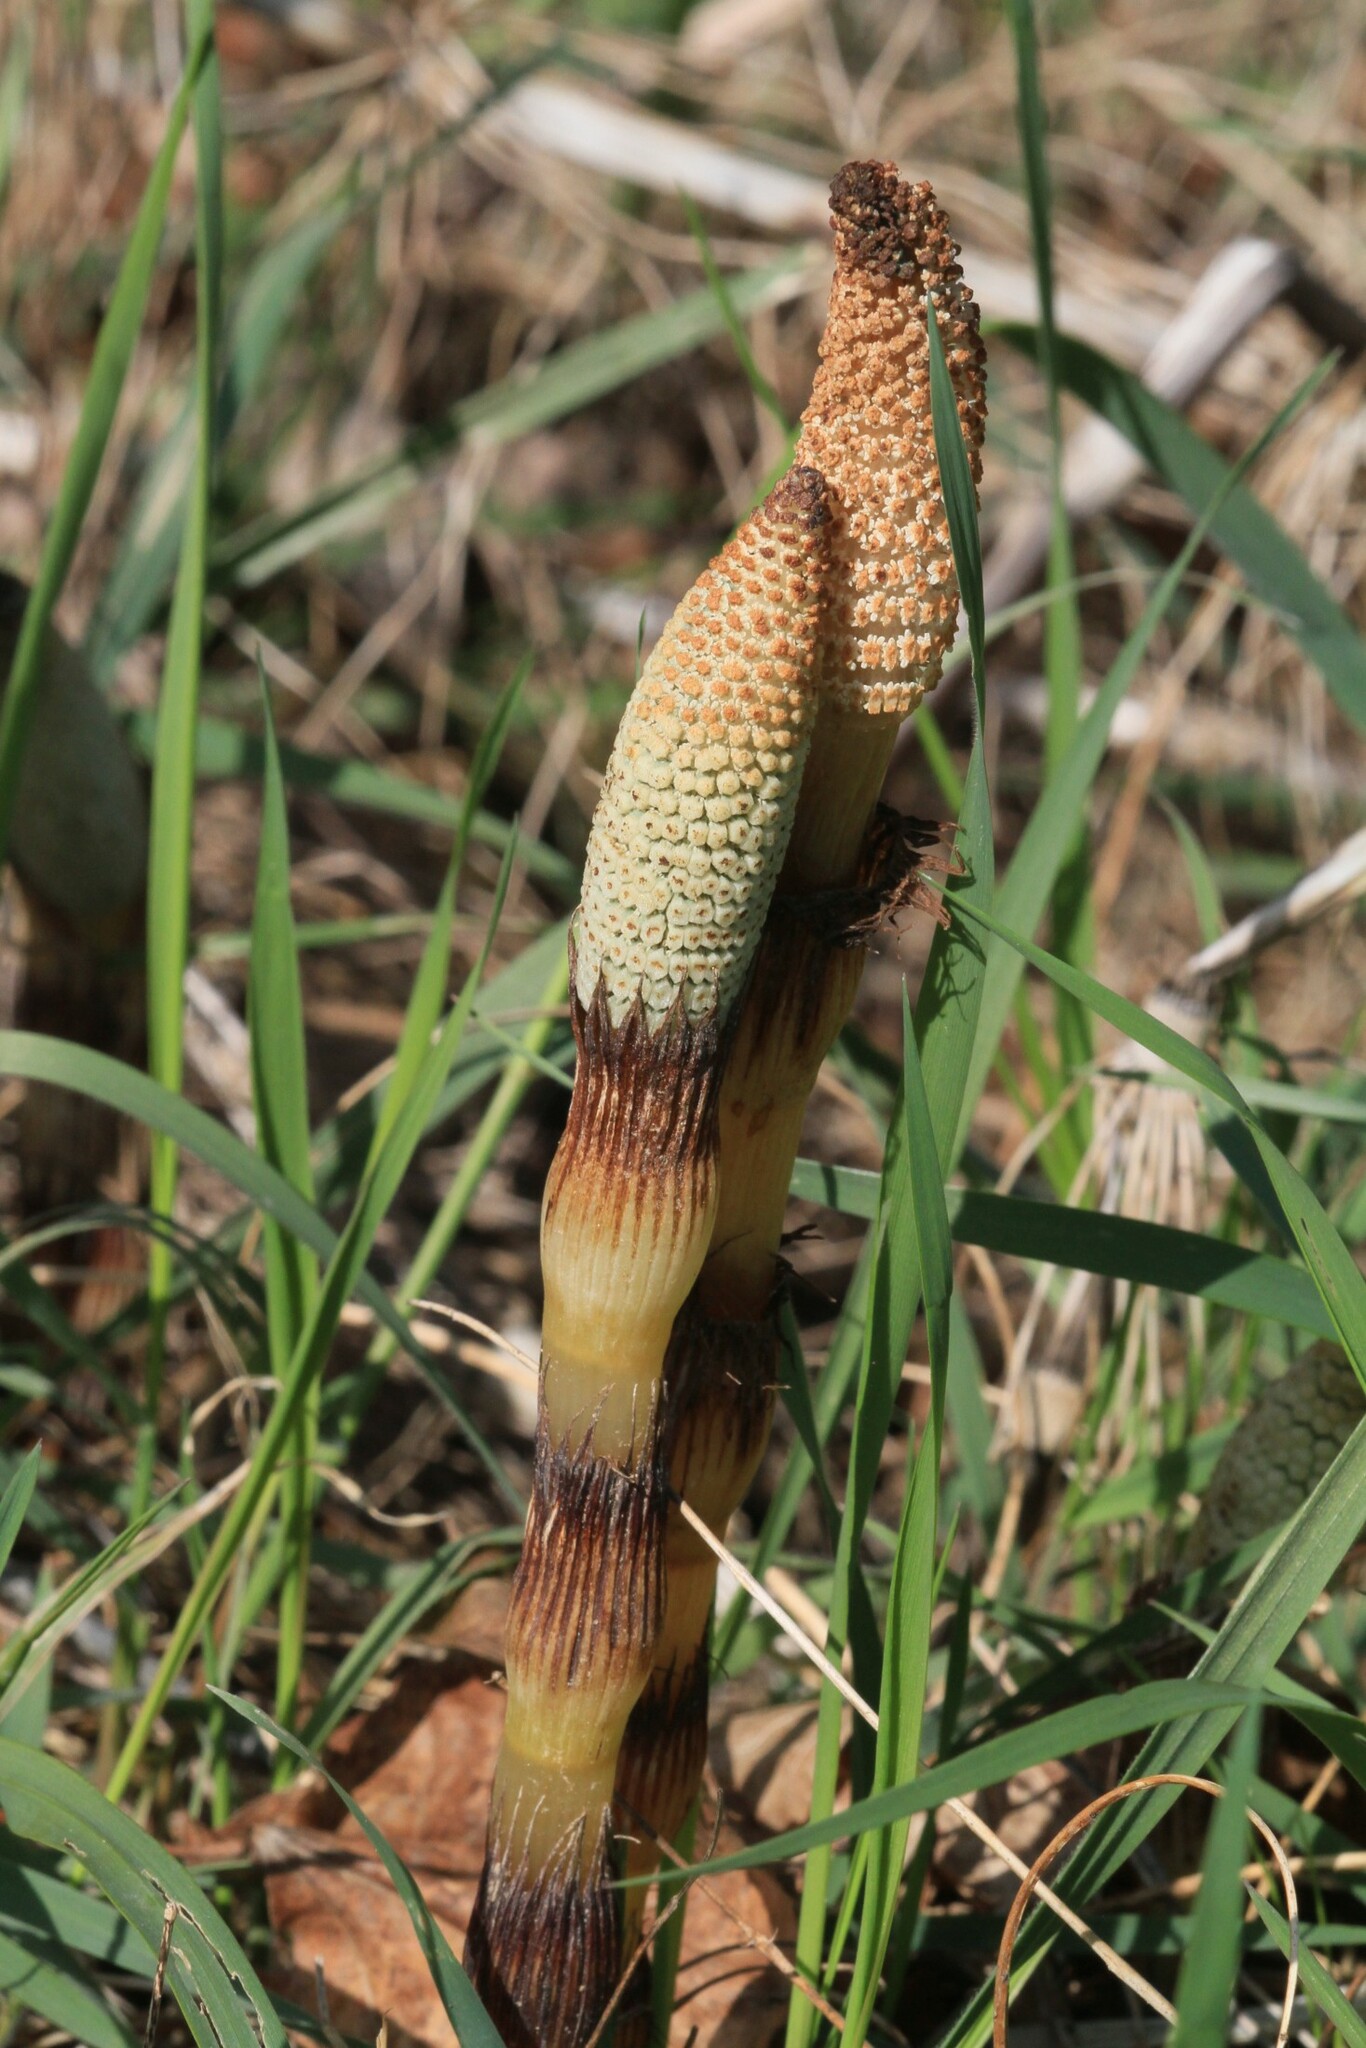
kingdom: Plantae
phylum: Tracheophyta
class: Polypodiopsida
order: Equisetales
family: Equisetaceae
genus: Equisetum
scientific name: Equisetum telmateia
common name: Great horsetail
